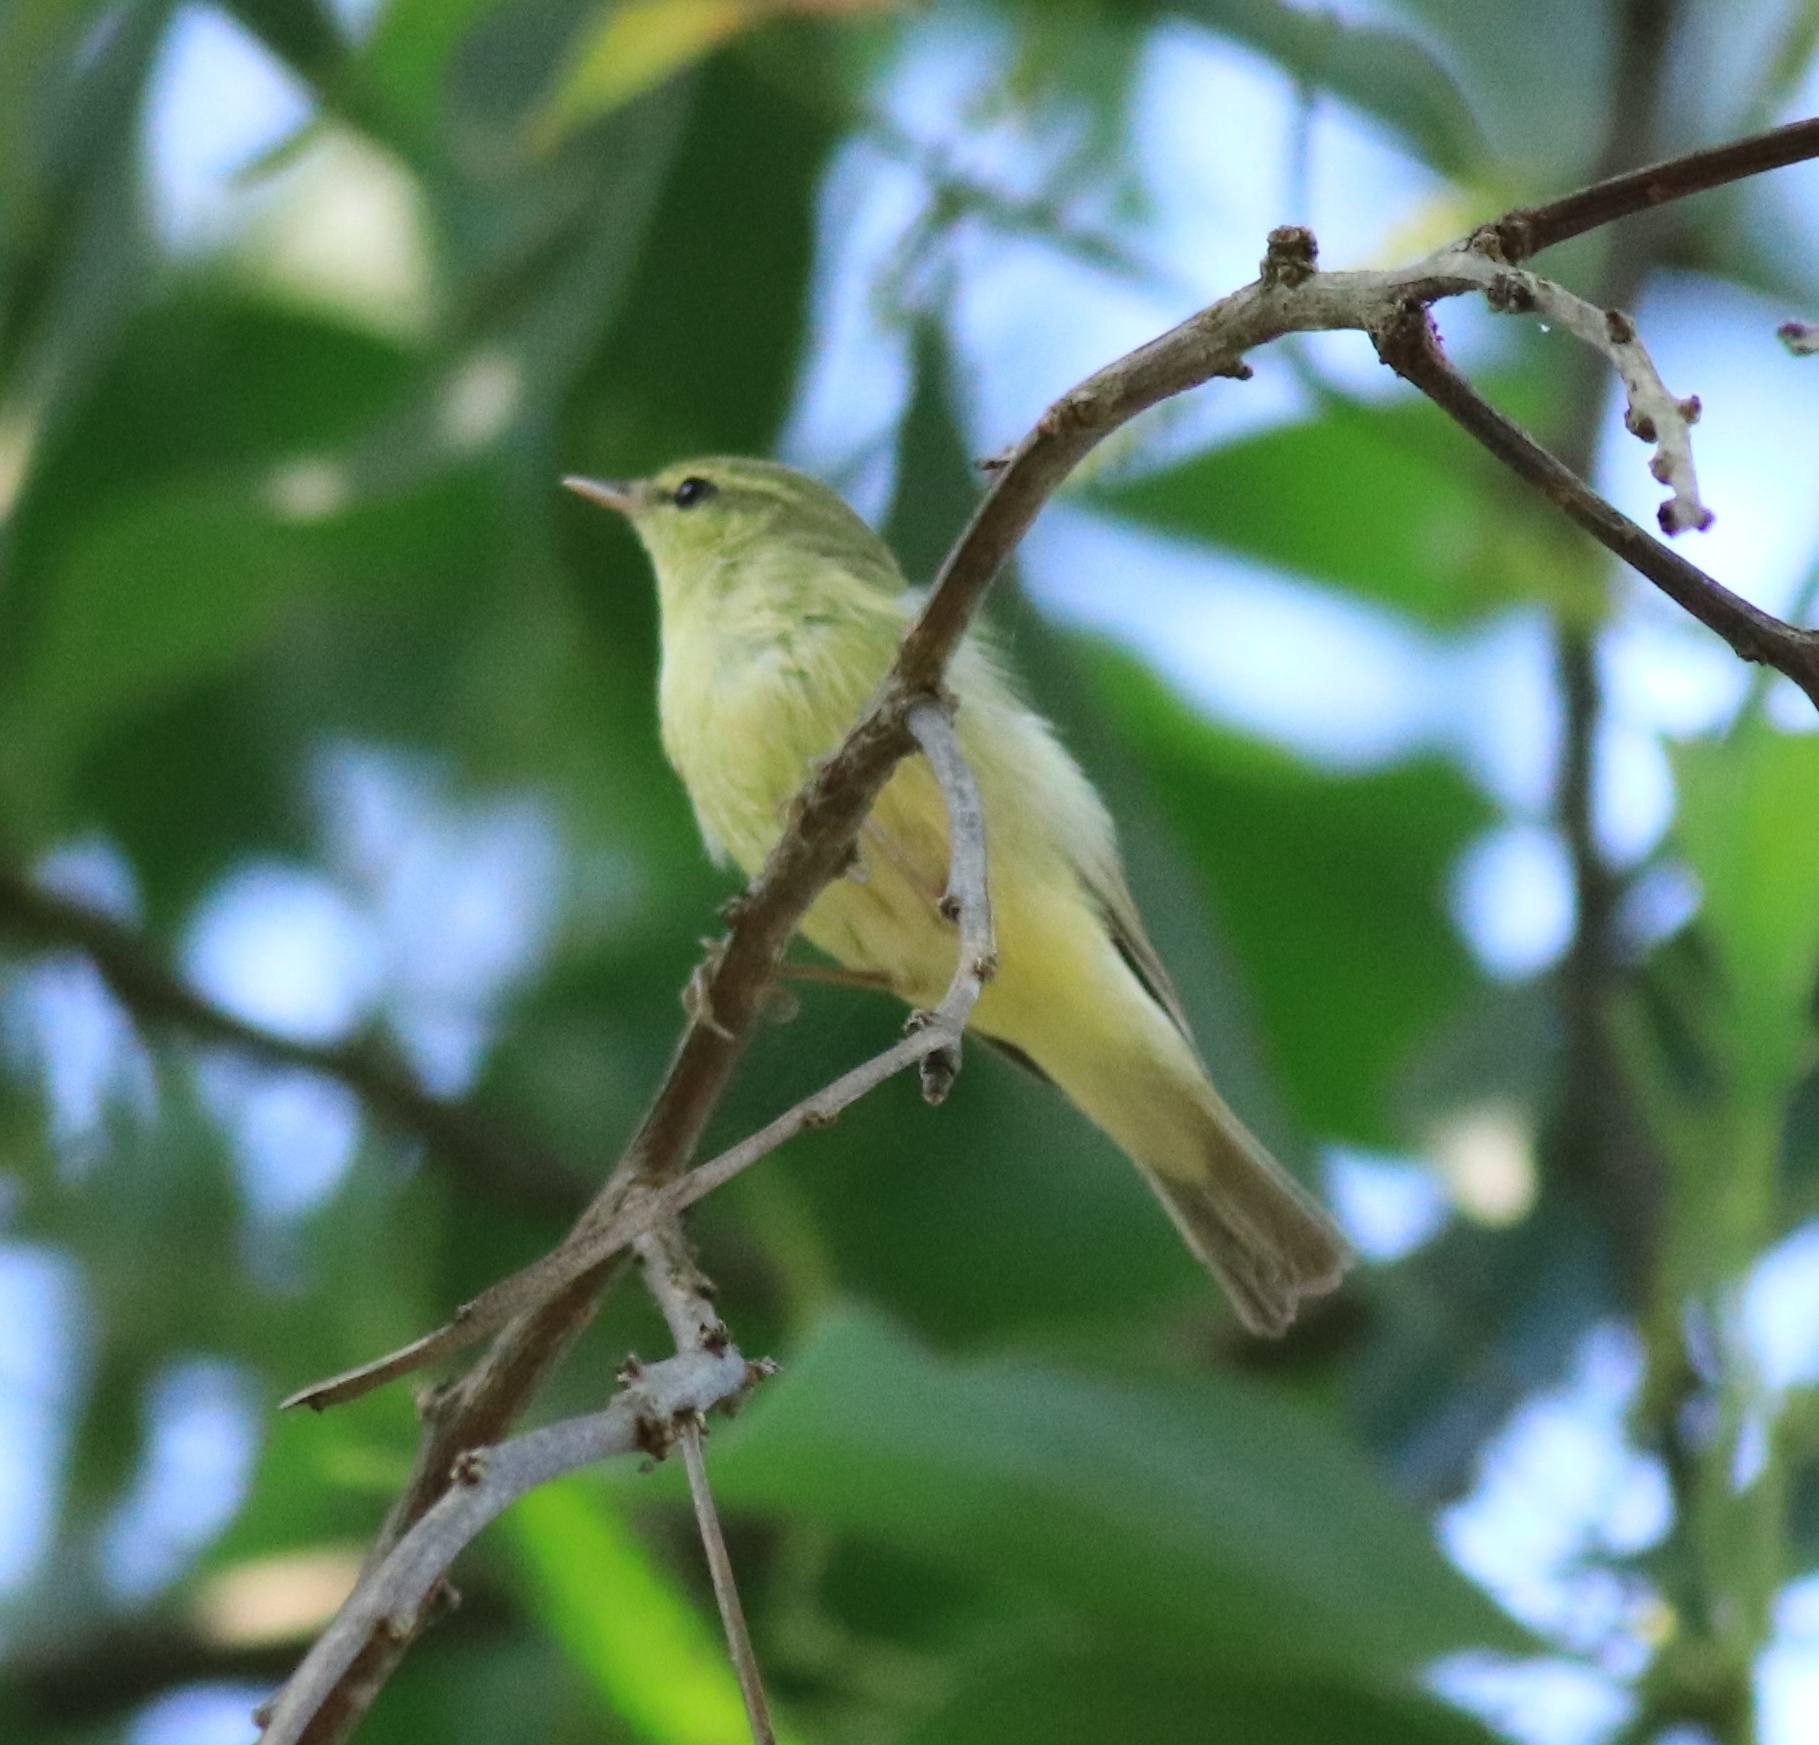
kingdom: Animalia
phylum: Chordata
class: Aves
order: Passeriformes
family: Phylloscopidae
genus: Phylloscopus
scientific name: Phylloscopus nitidus
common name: Green warbler
